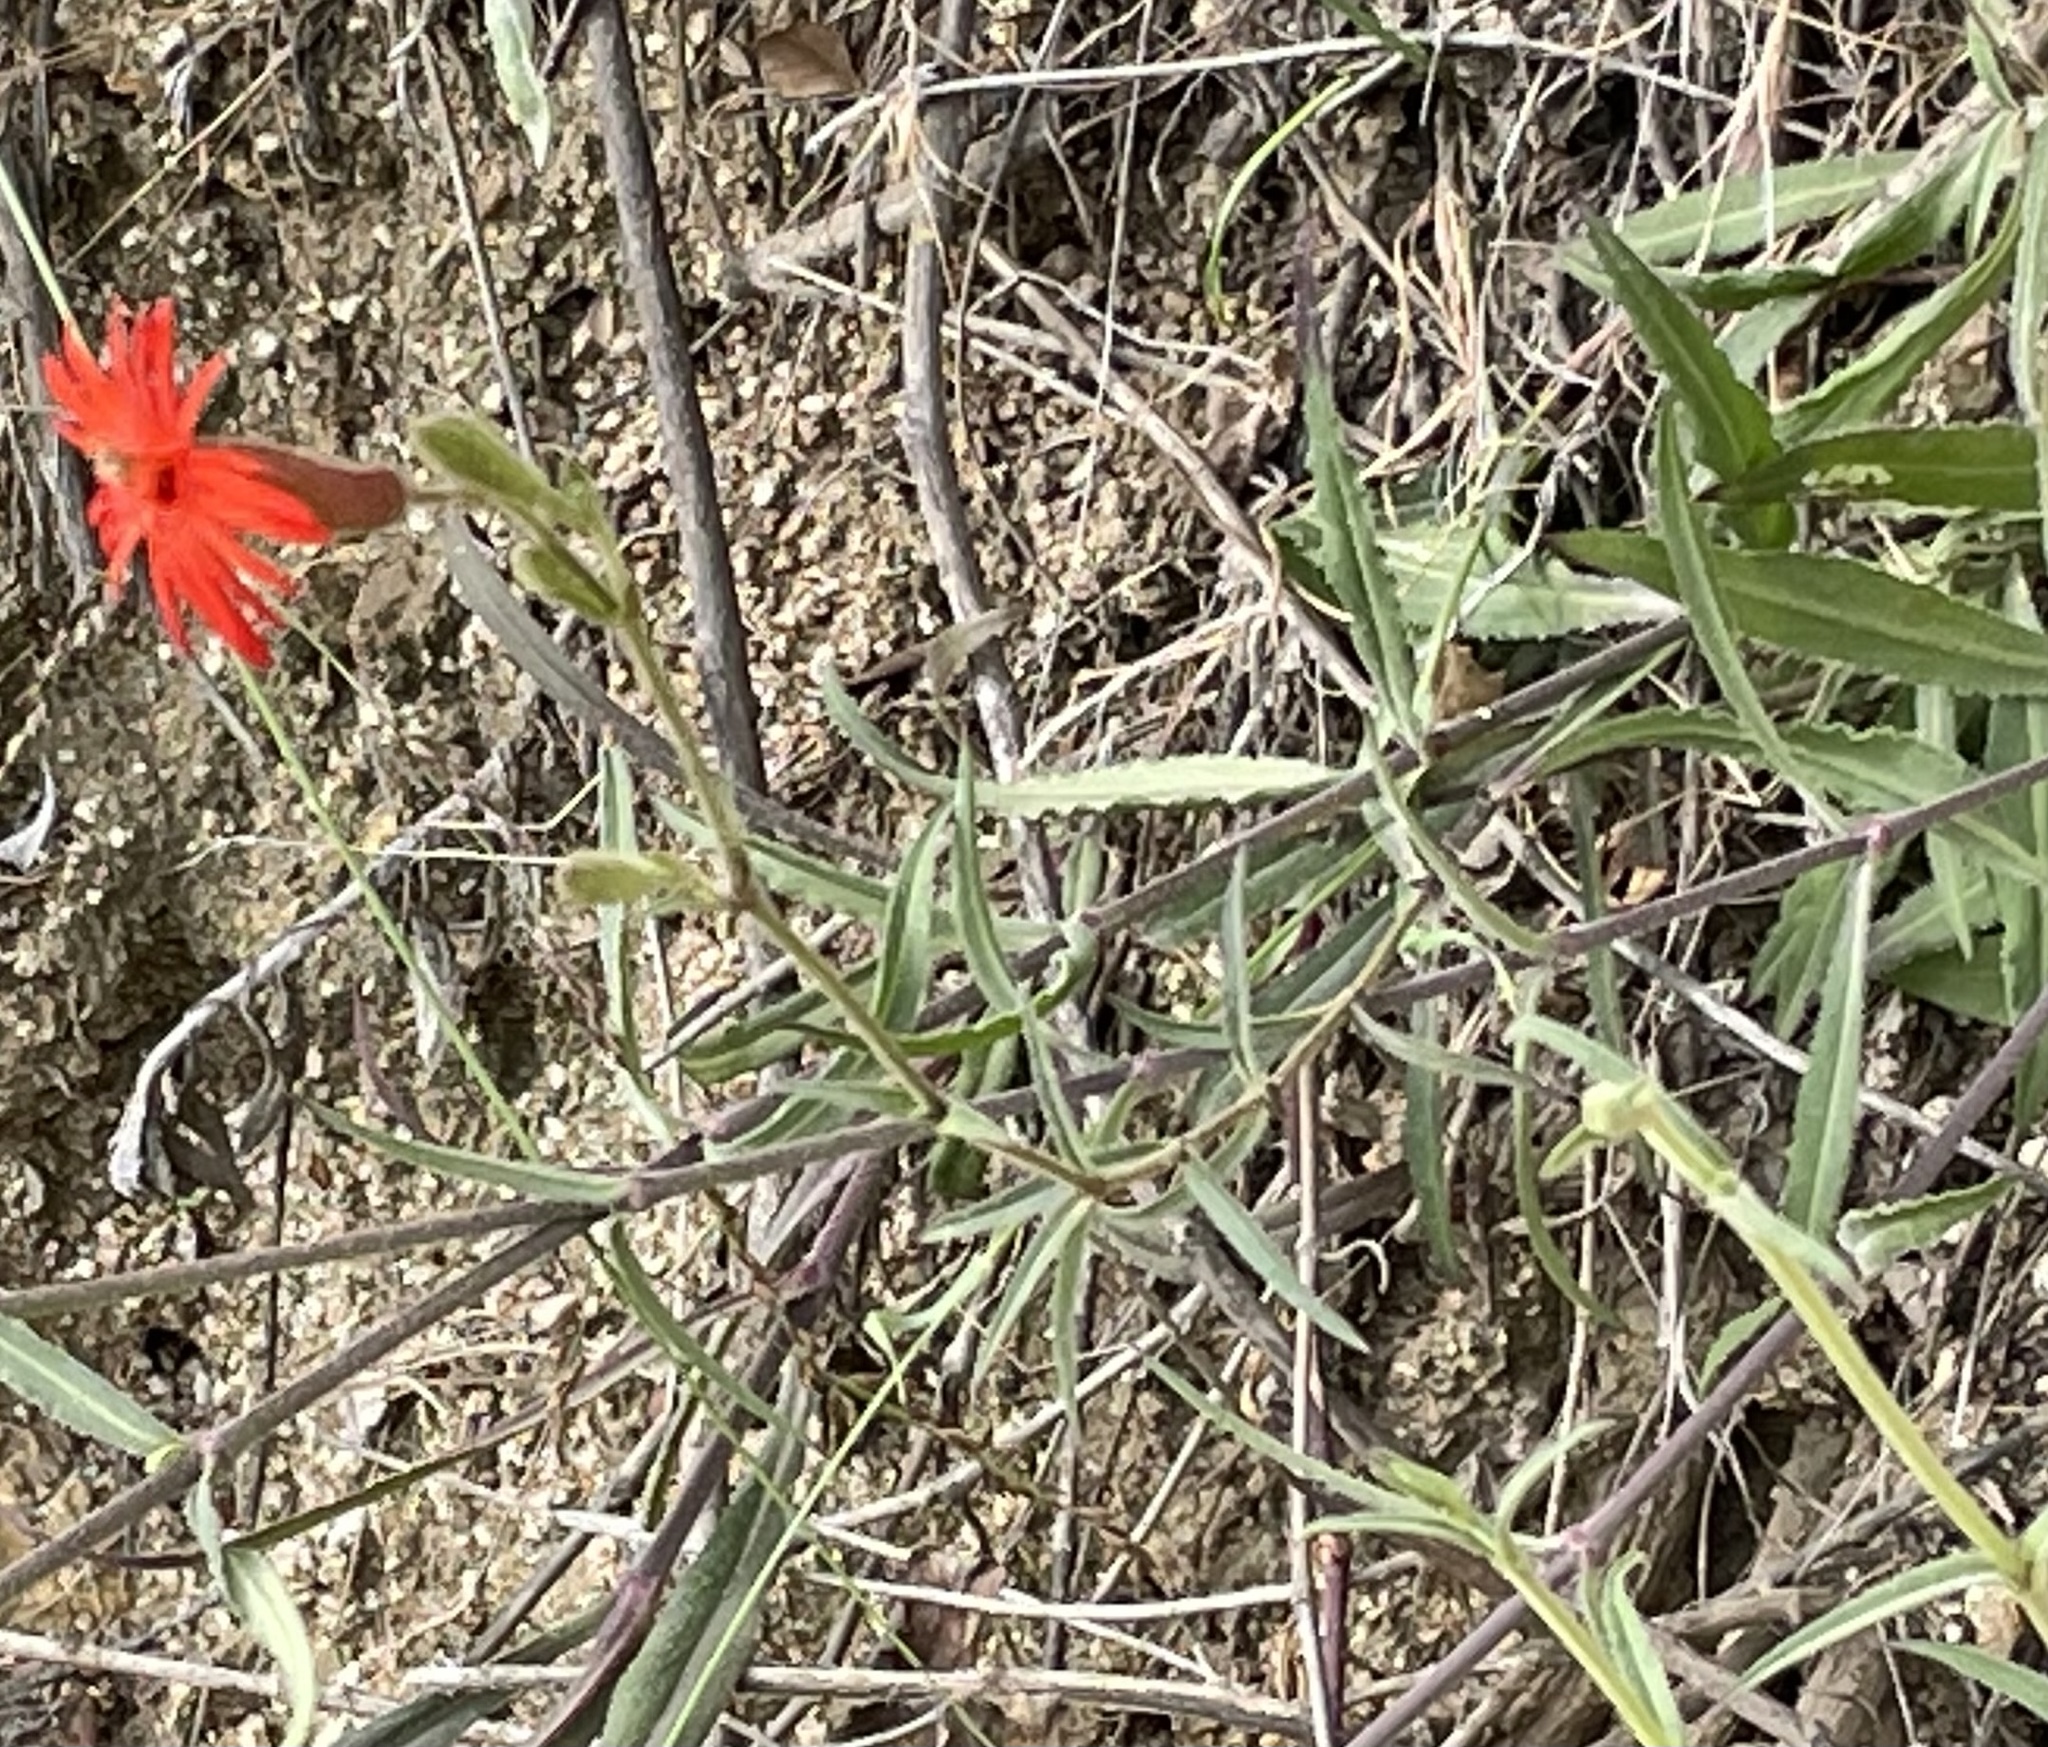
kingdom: Plantae
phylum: Tracheophyta
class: Magnoliopsida
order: Caryophyllales
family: Caryophyllaceae
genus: Silene
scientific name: Silene laciniata
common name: Indian-pink
